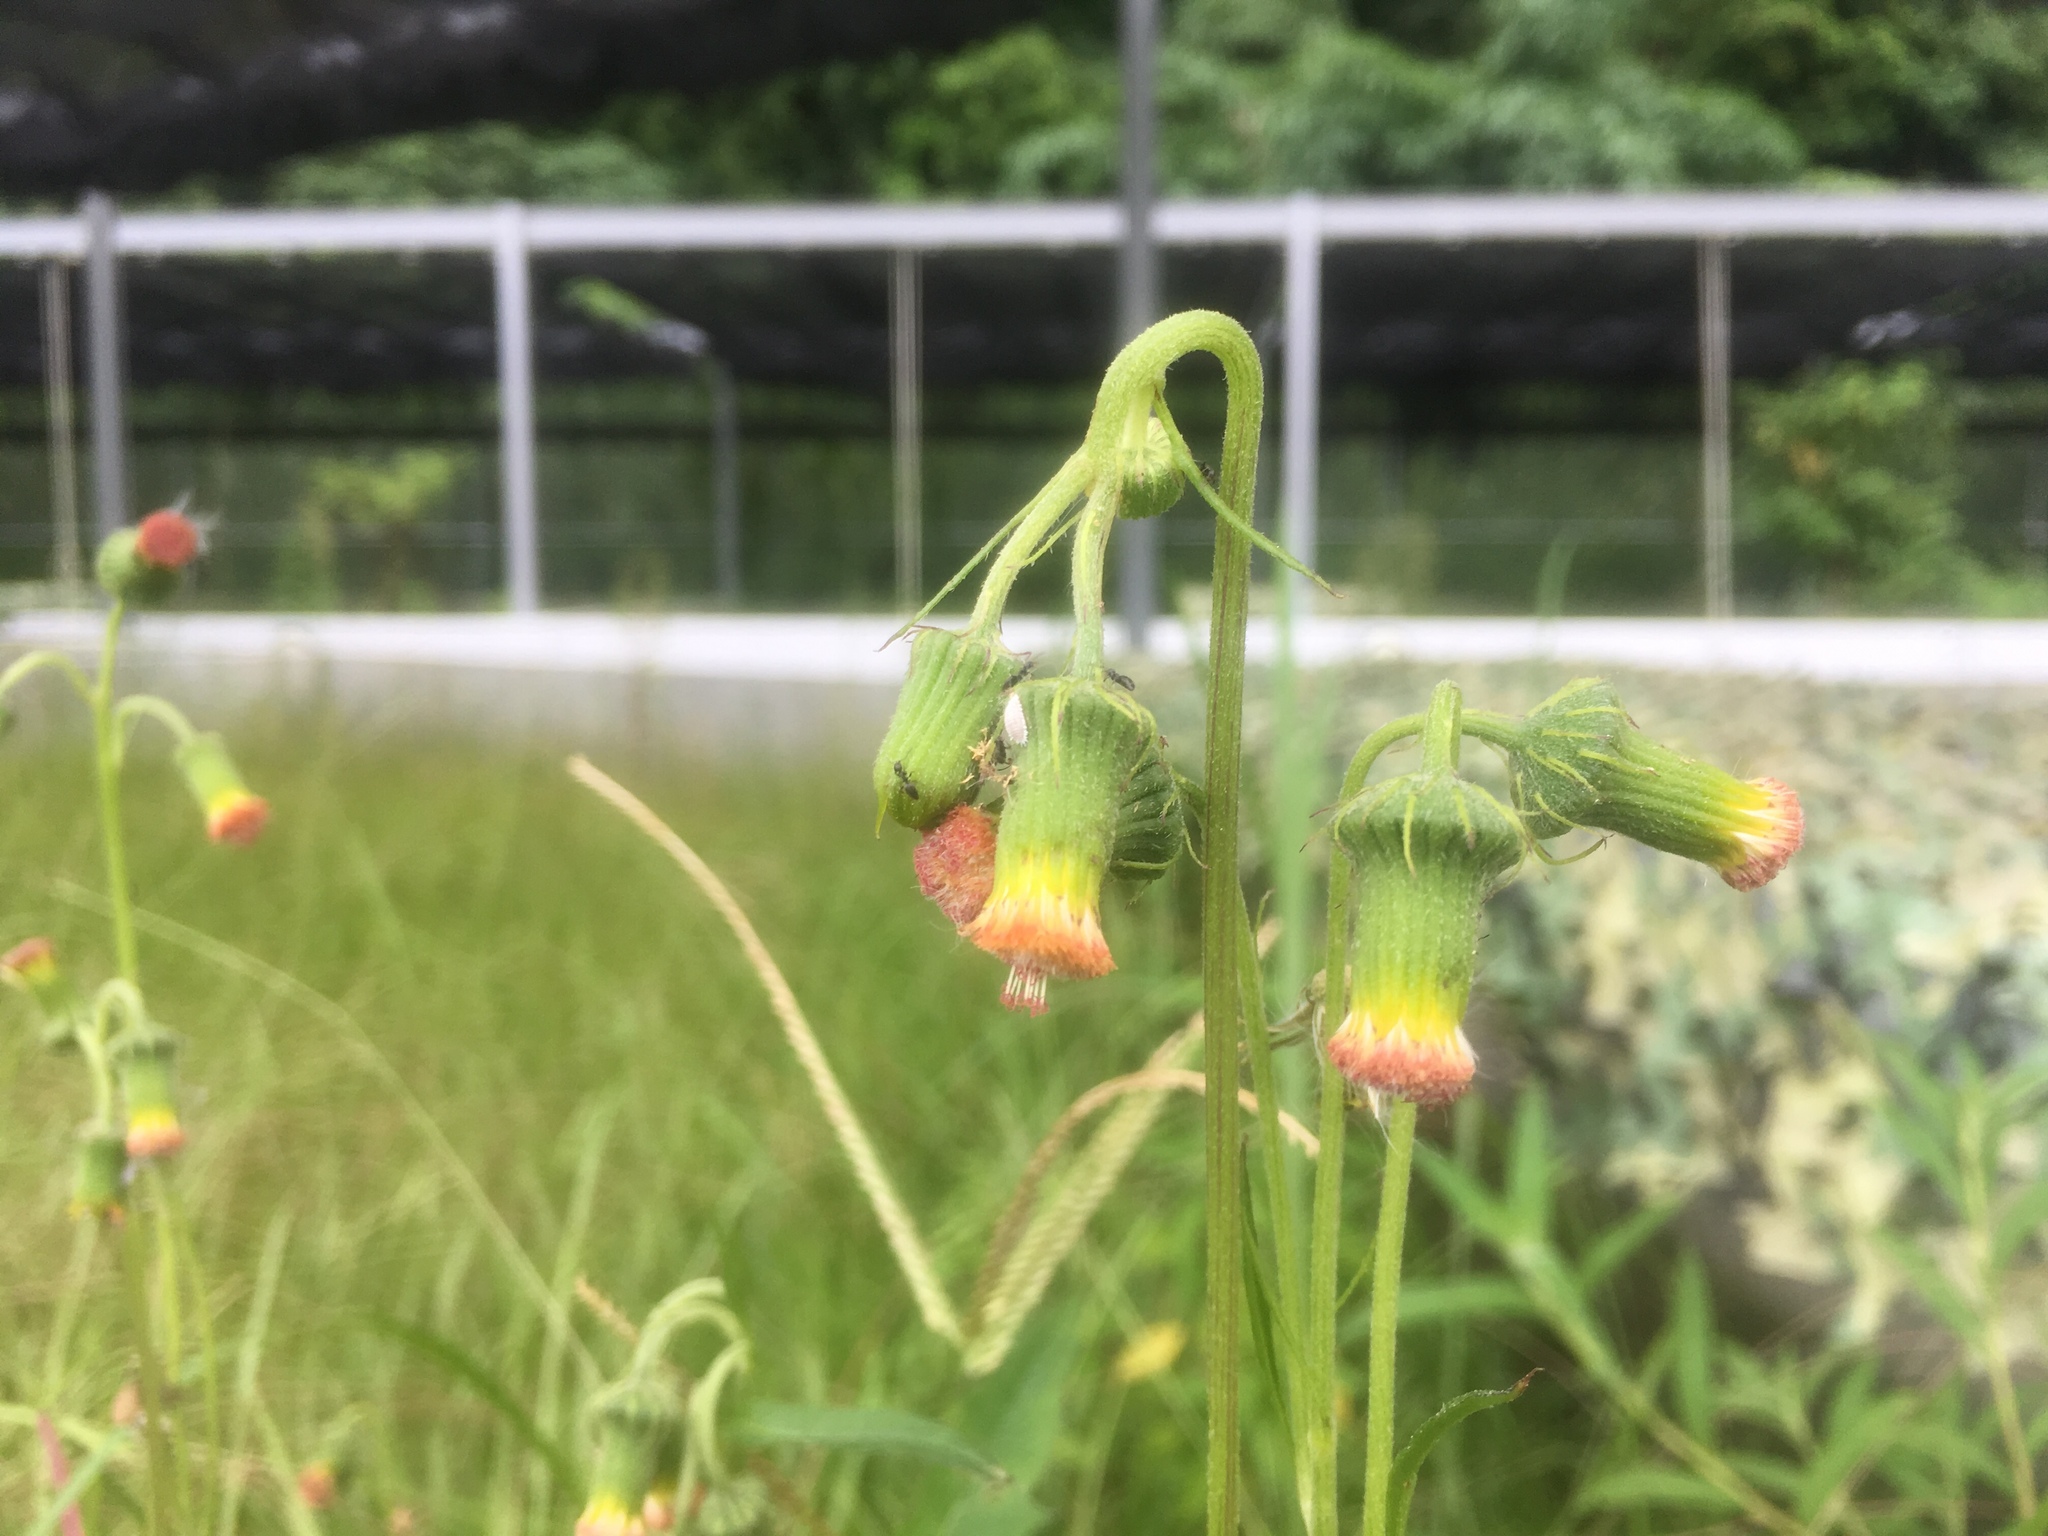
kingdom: Plantae
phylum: Tracheophyta
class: Magnoliopsida
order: Asterales
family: Asteraceae
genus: Crassocephalum
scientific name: Crassocephalum crepidioides
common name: Redflower ragleaf
